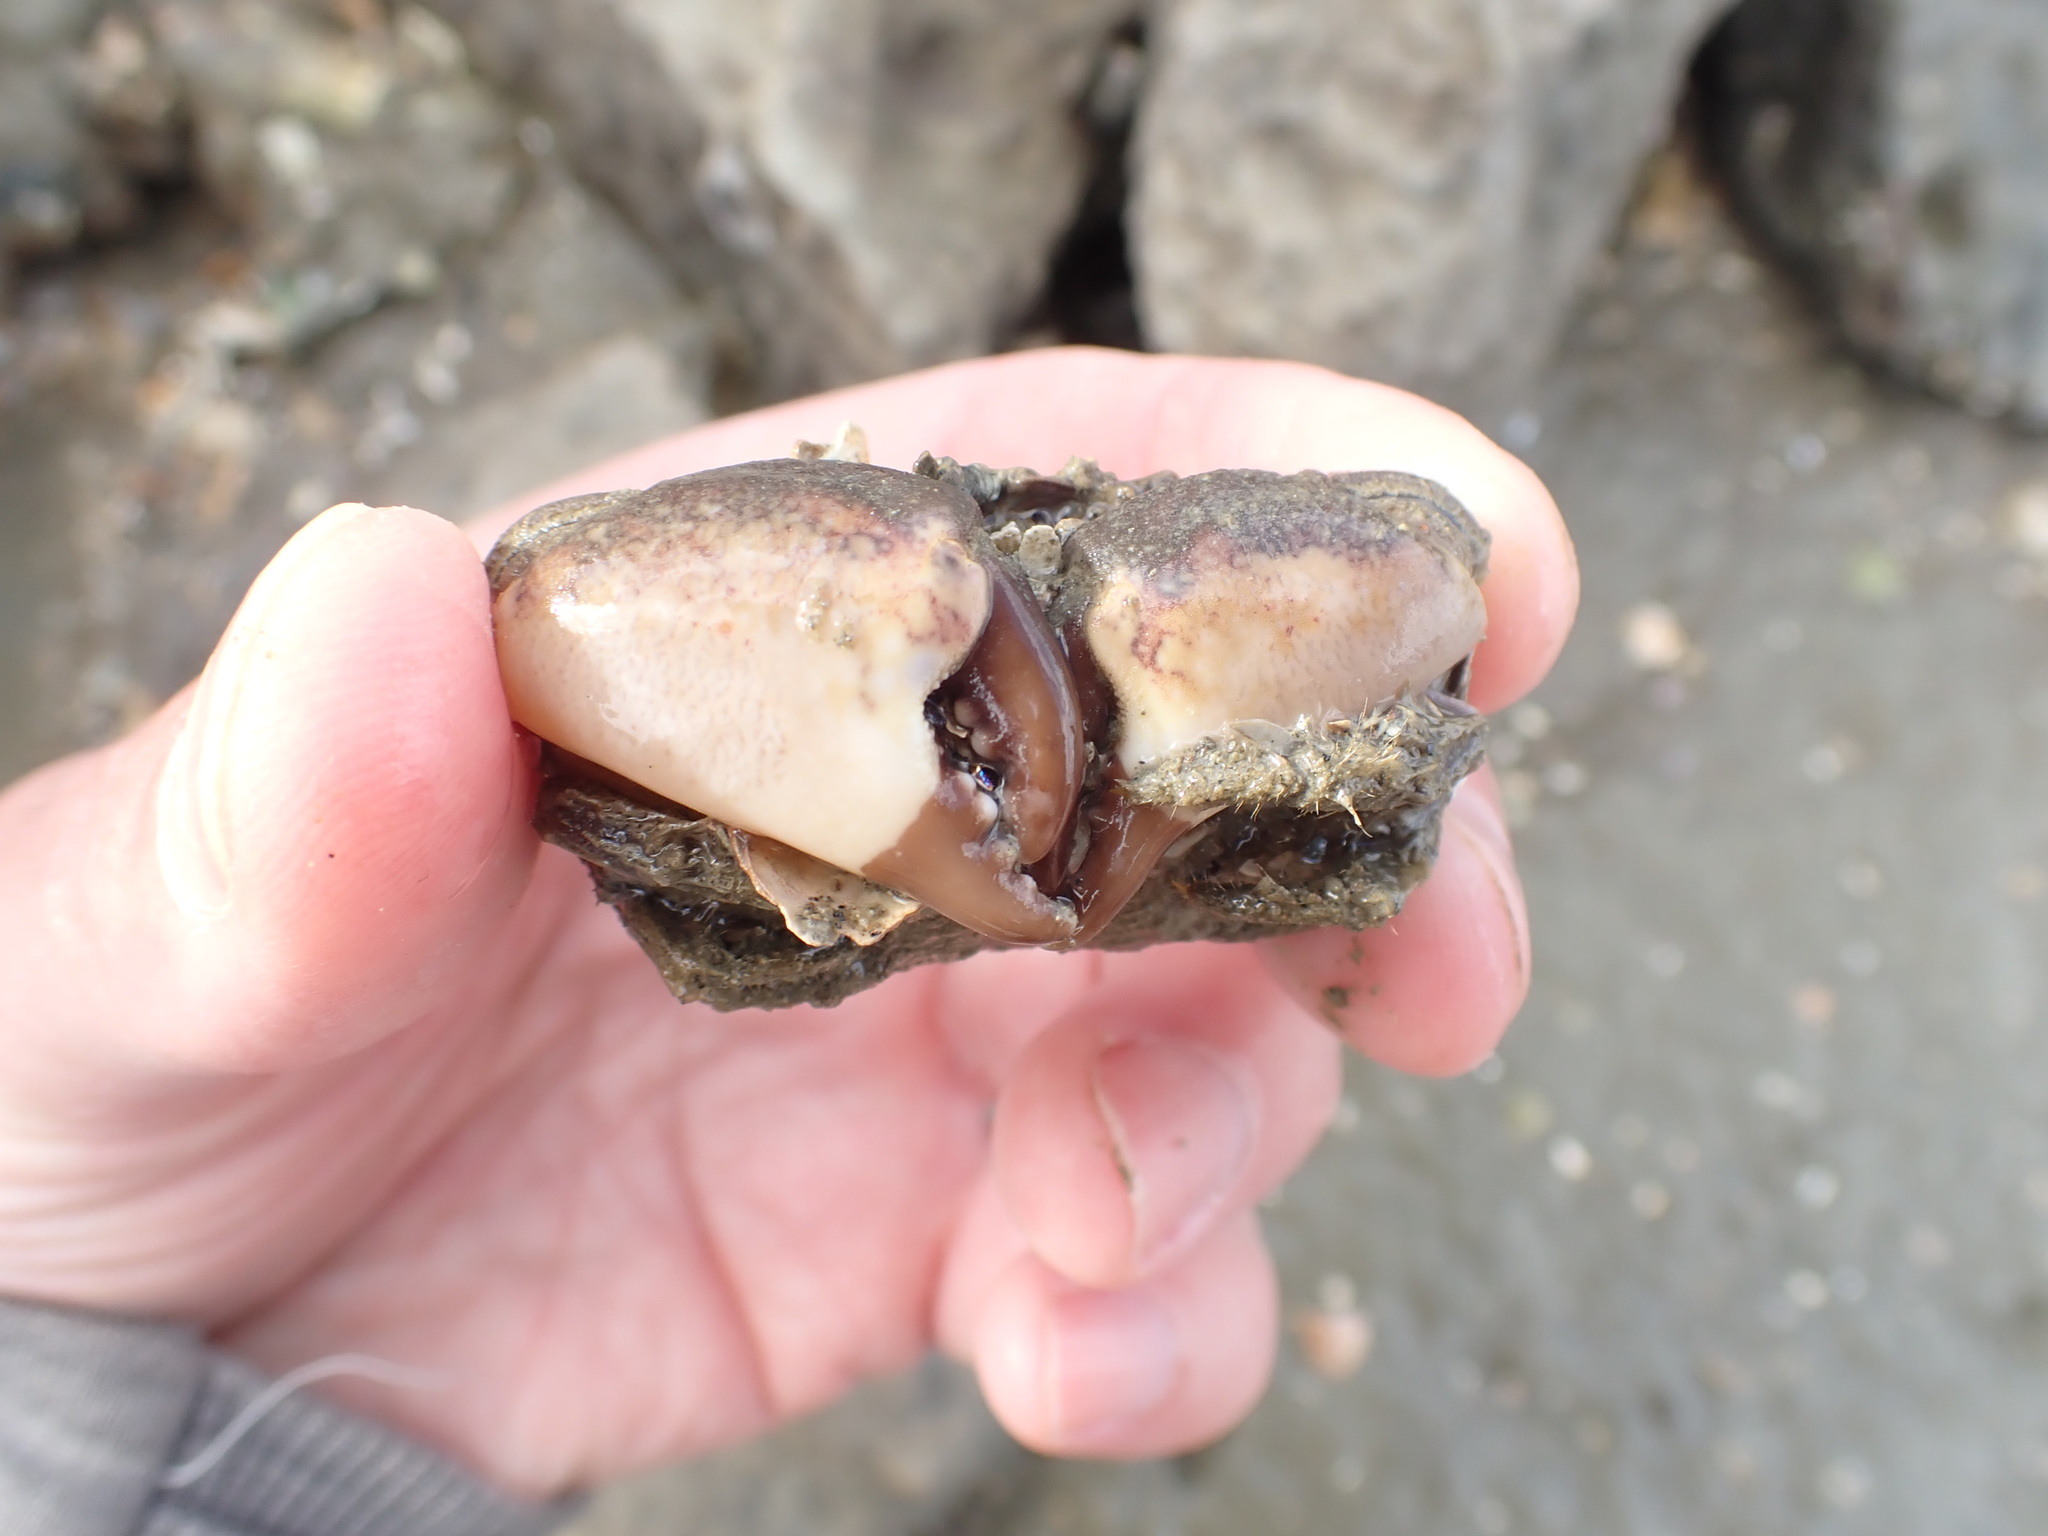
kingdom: Animalia
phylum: Arthropoda
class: Malacostraca
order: Decapoda
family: Pilumnidae
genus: Pilumnopeus
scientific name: Pilumnopeus serratifrons
